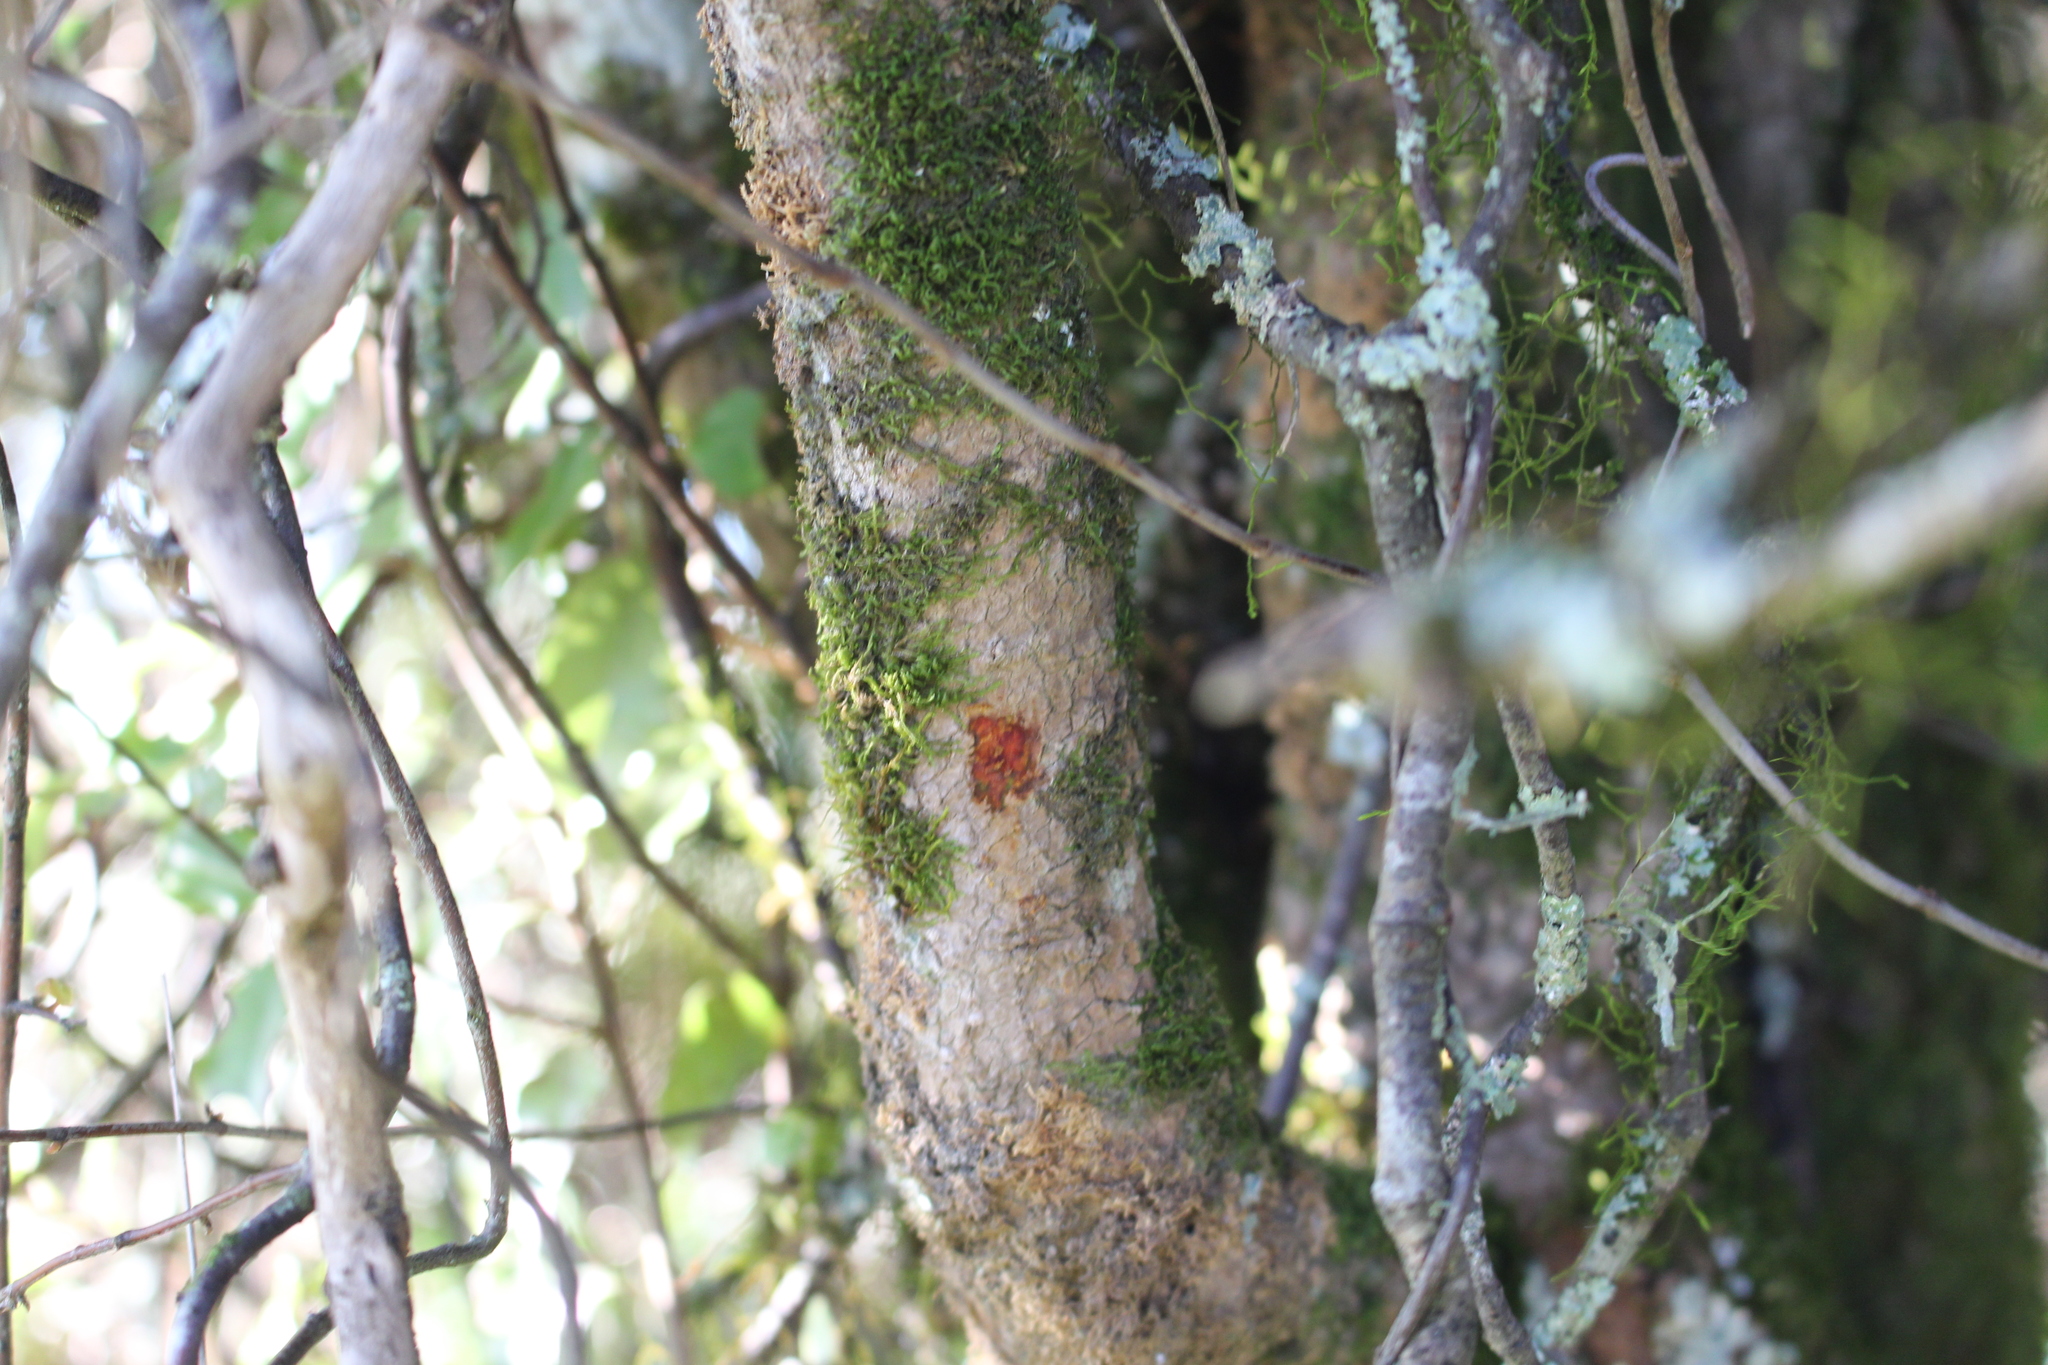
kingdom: Plantae
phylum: Tracheophyta
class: Magnoliopsida
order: Gentianales
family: Rubiaceae
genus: Coprosma
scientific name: Coprosma wallii
